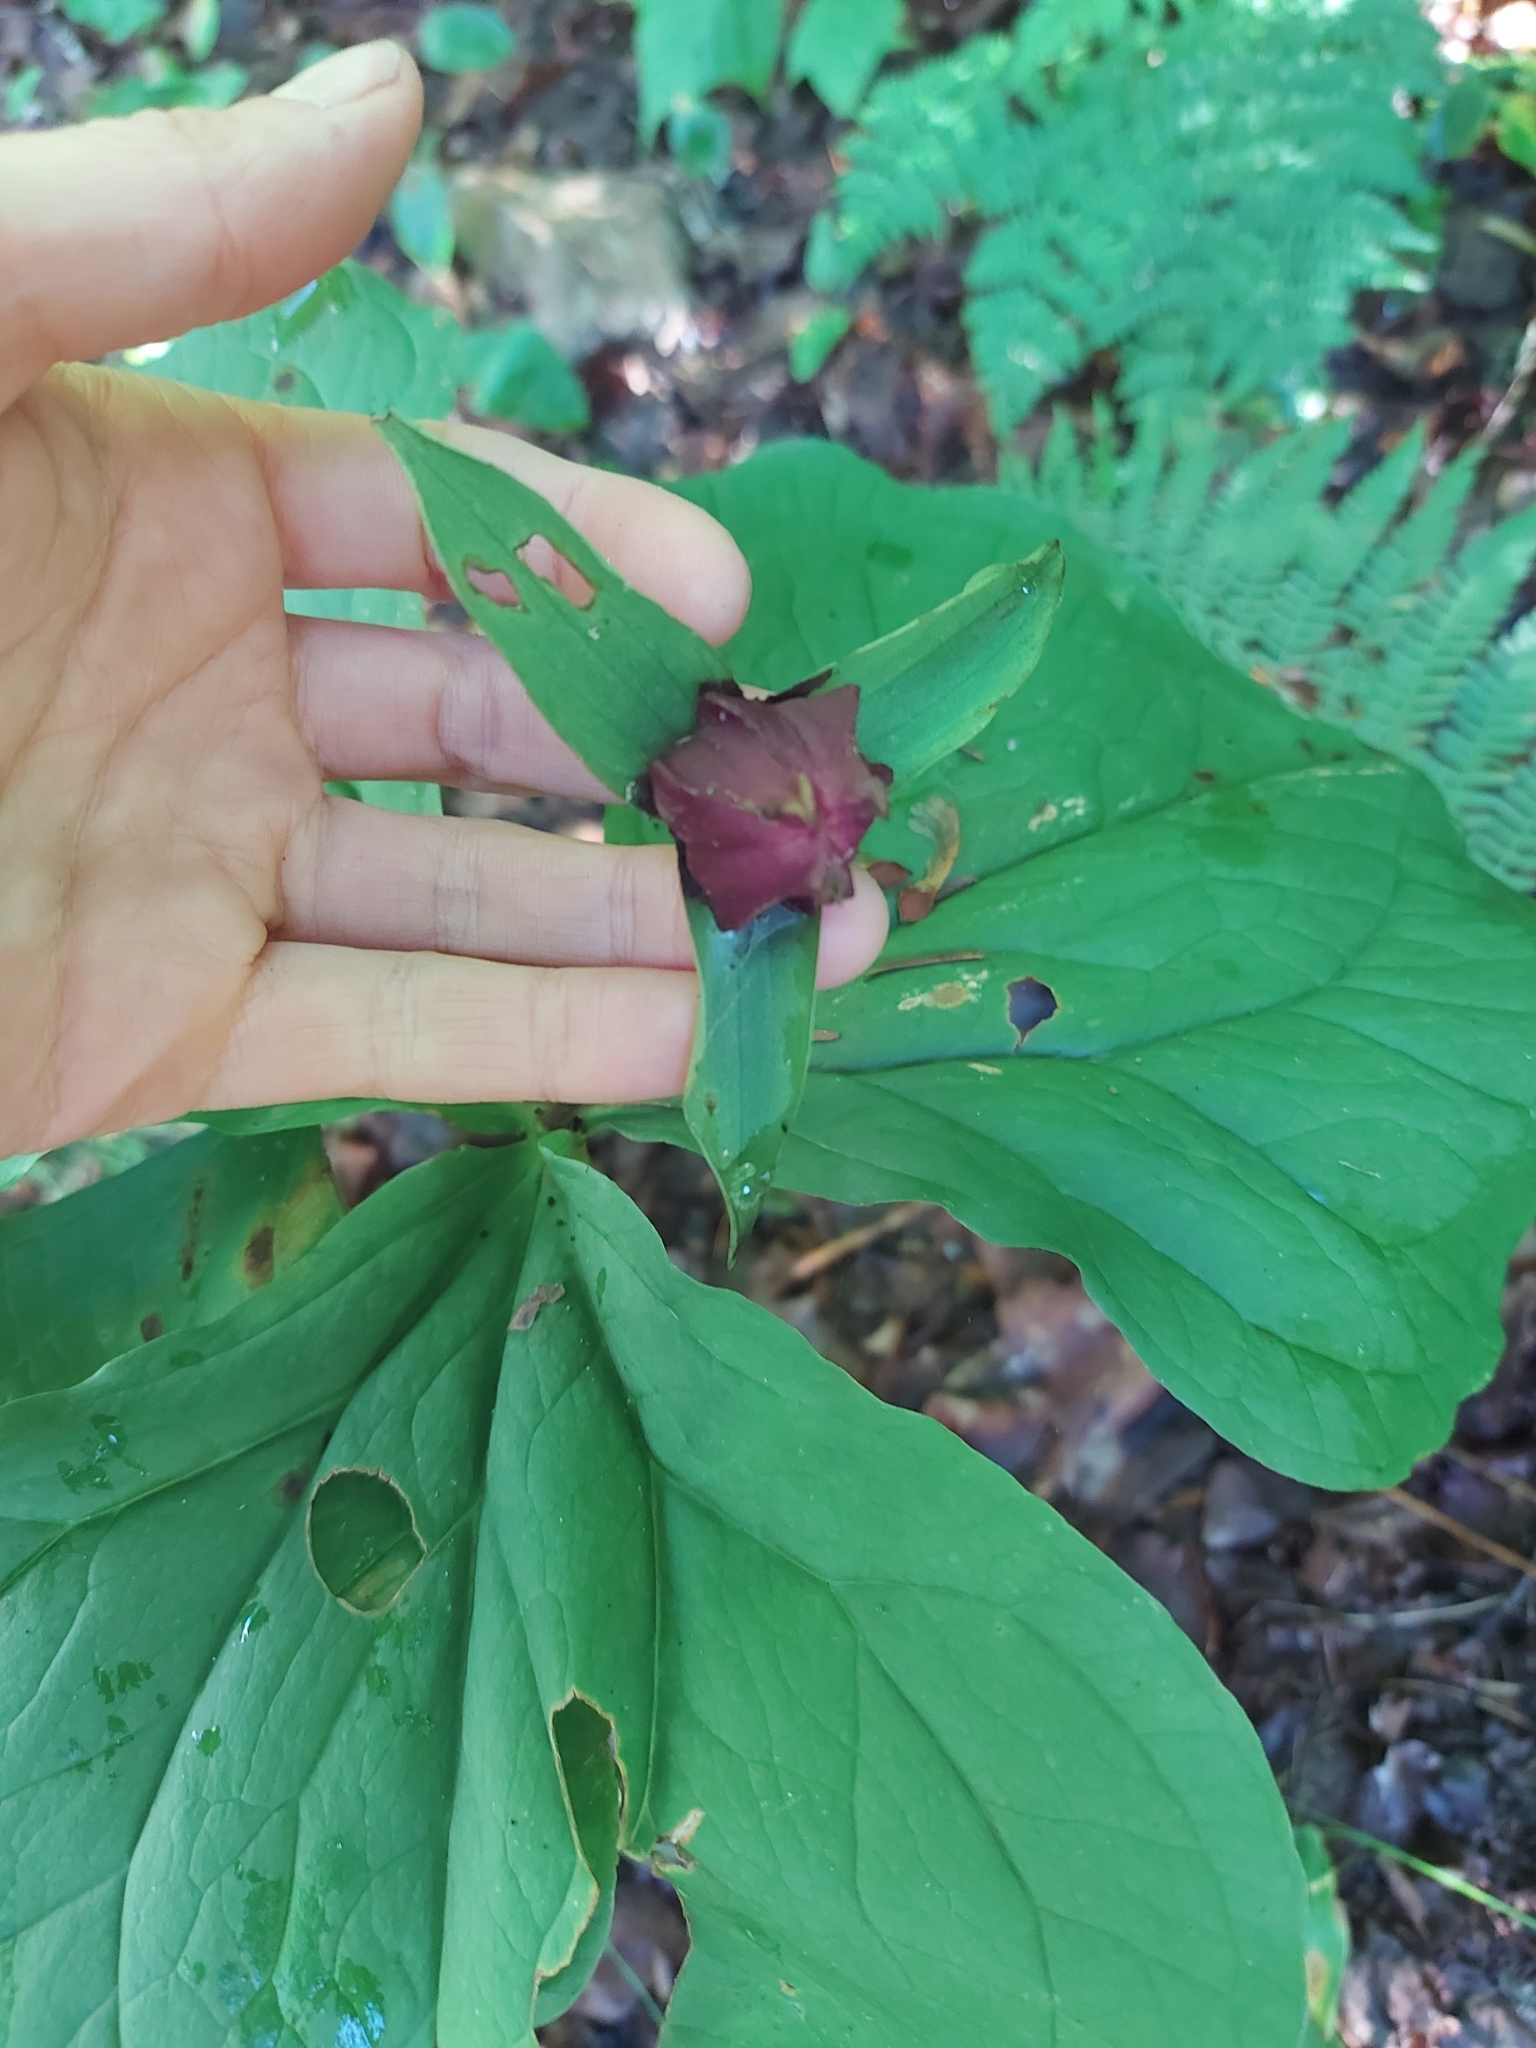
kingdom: Plantae
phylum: Tracheophyta
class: Liliopsida
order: Liliales
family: Melanthiaceae
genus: Trillium
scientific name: Trillium erectum
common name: Purple trillium
